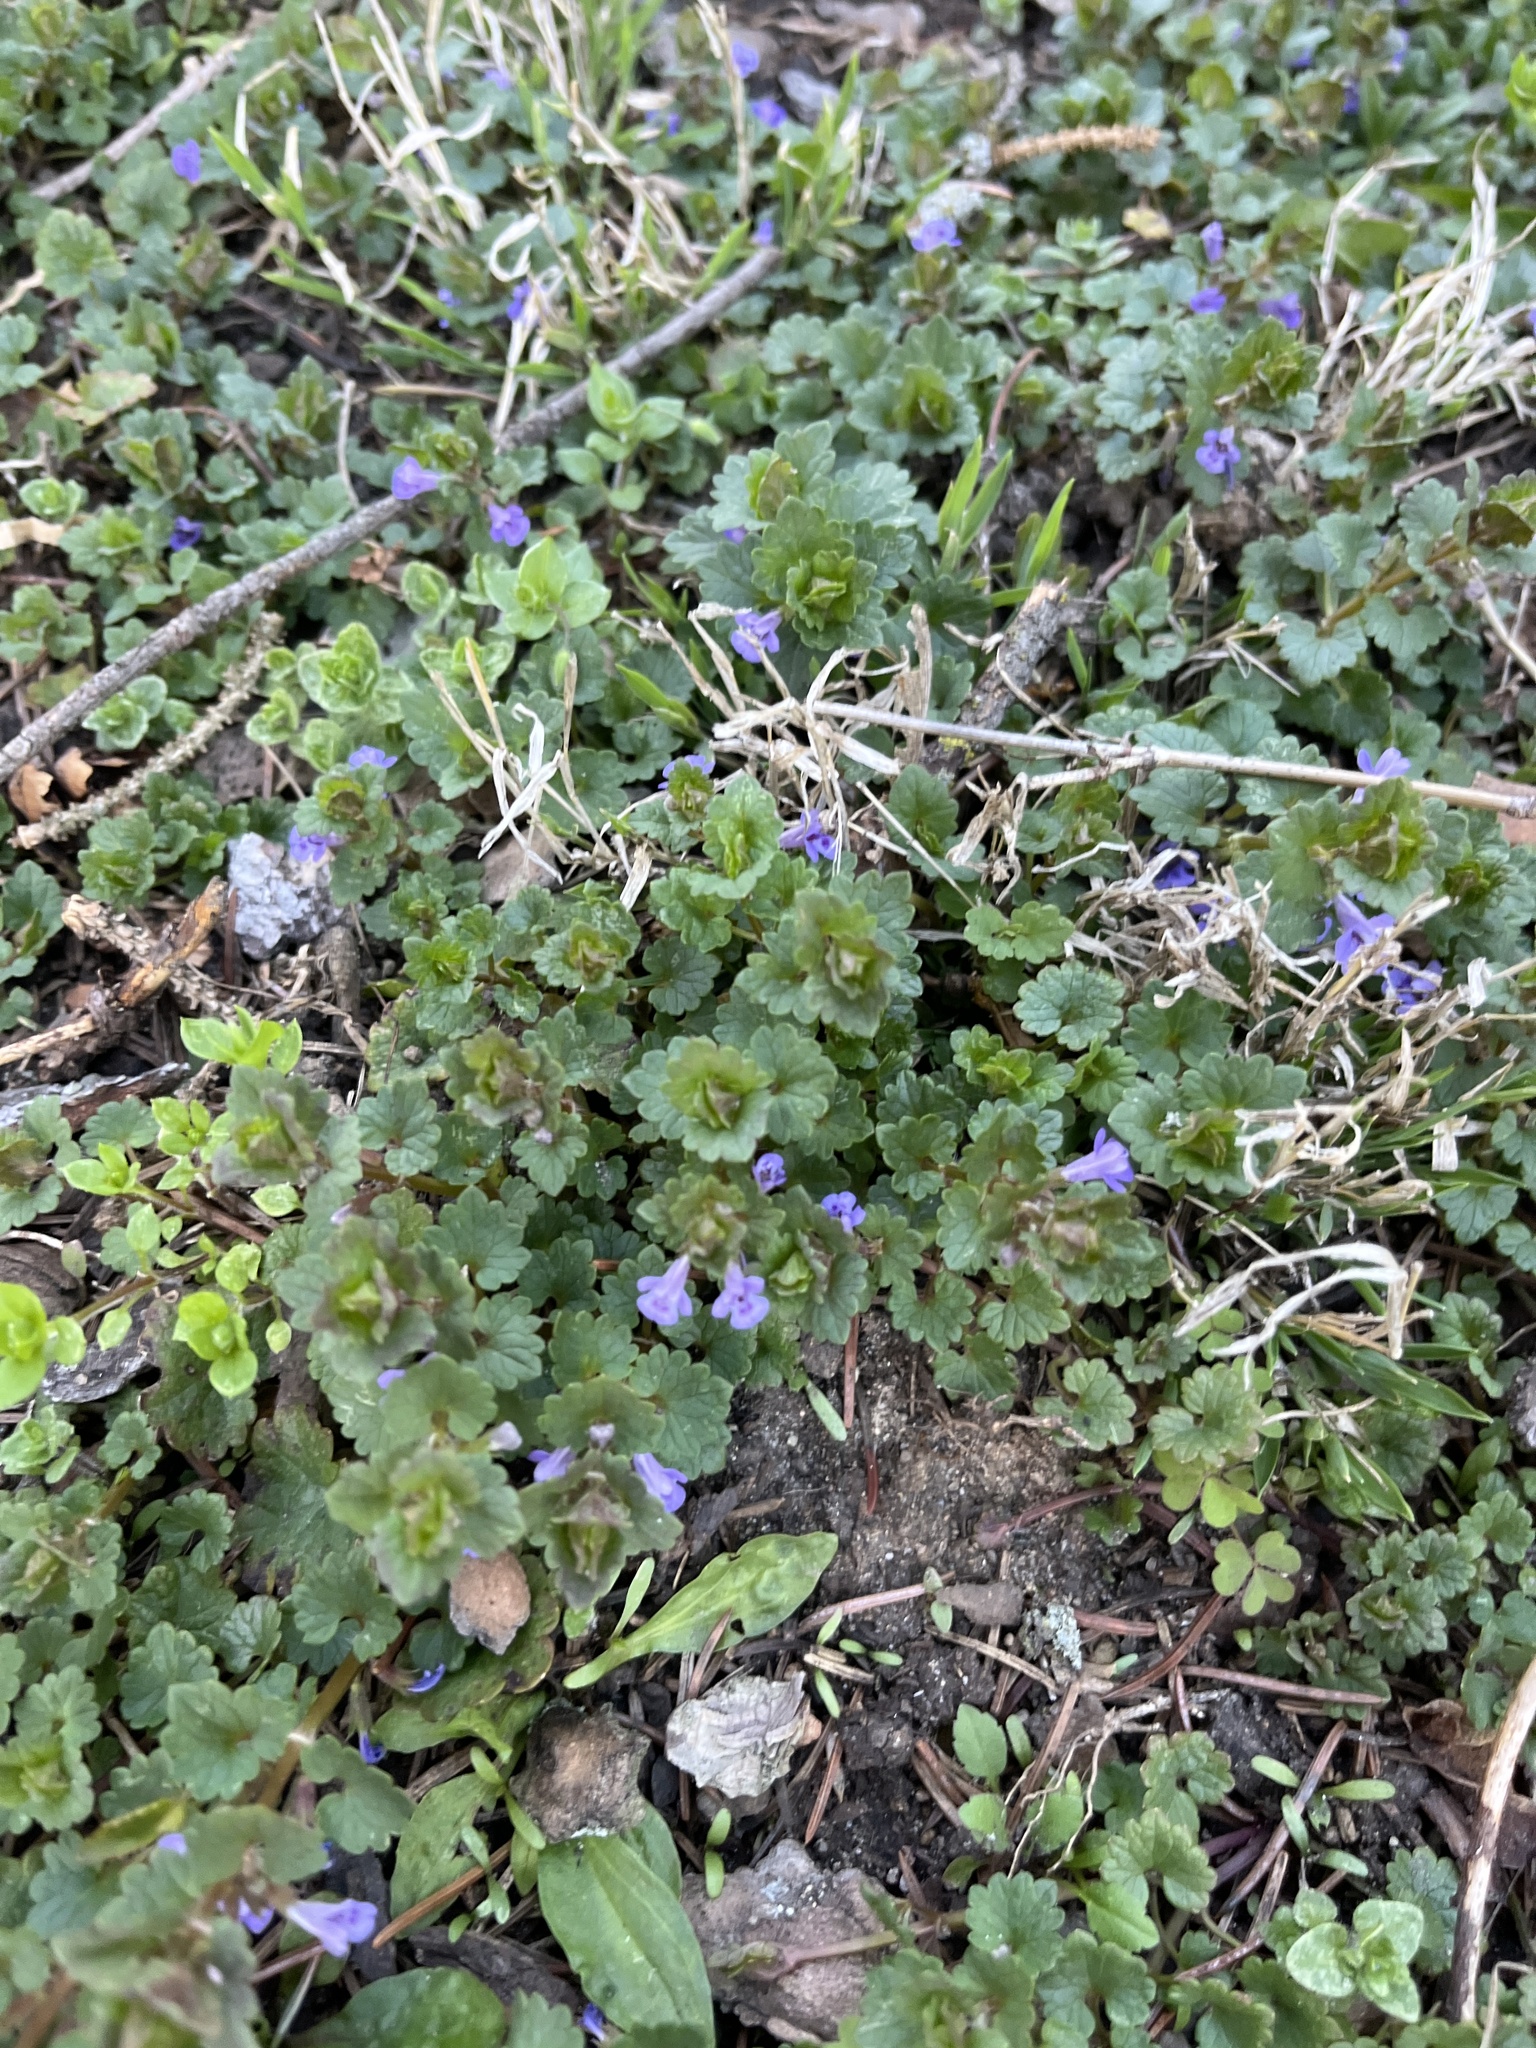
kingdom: Plantae
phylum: Tracheophyta
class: Magnoliopsida
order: Lamiales
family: Lamiaceae
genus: Glechoma
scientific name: Glechoma hederacea
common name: Ground ivy
